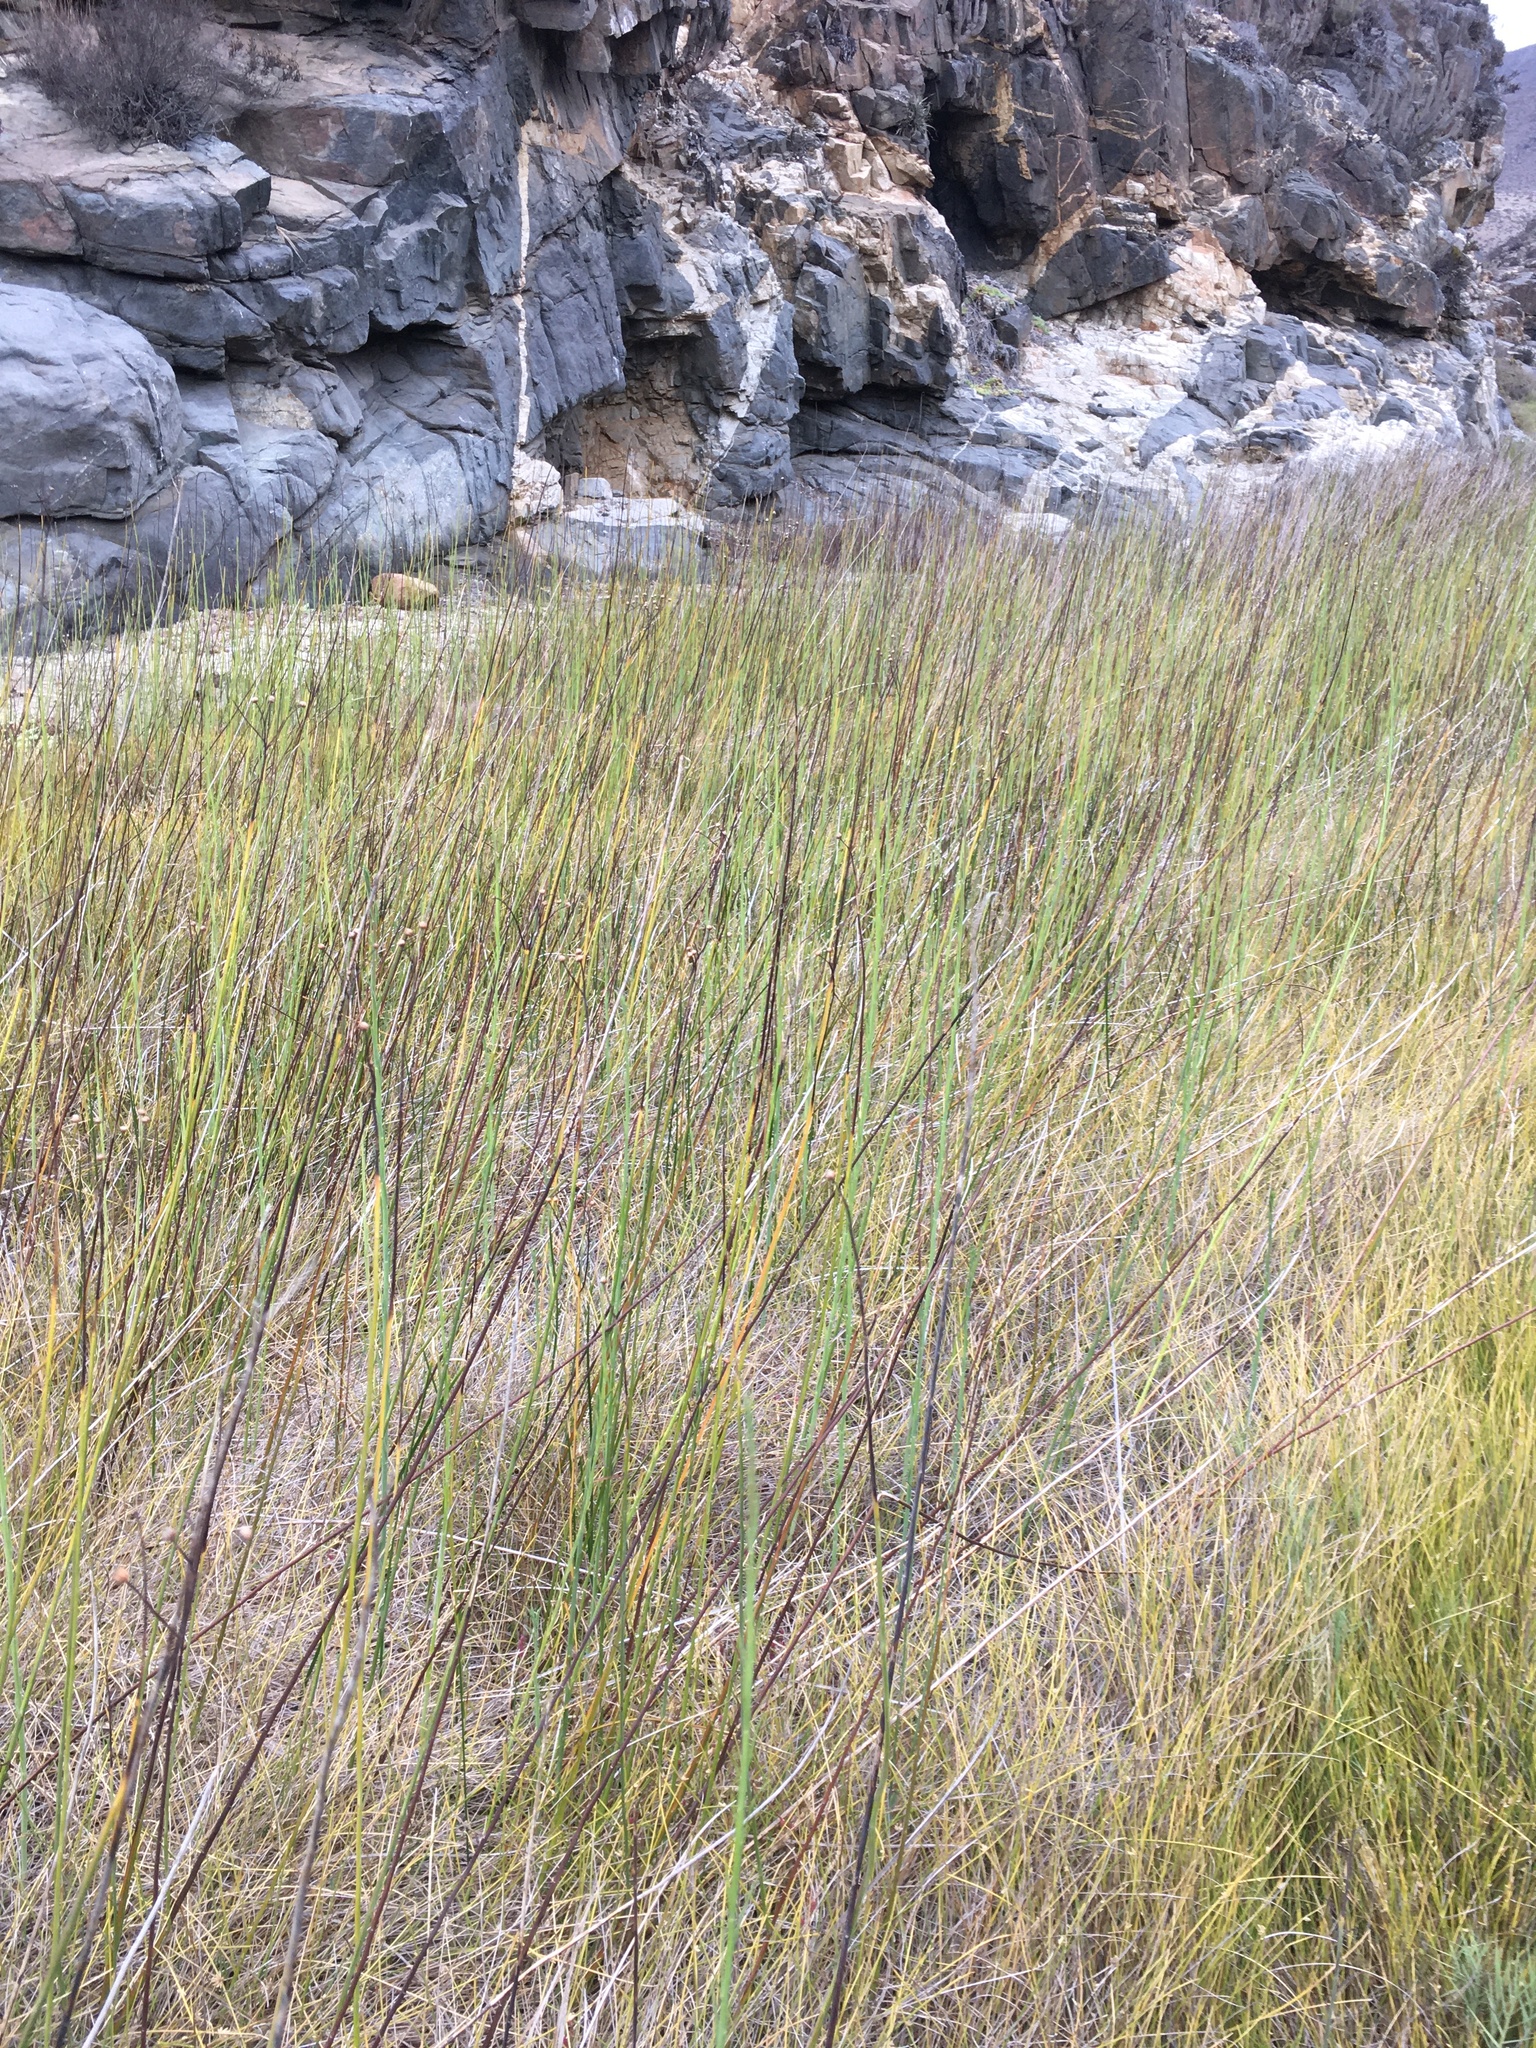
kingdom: Plantae
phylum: Tracheophyta
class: Magnoliopsida
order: Asterales
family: Asteraceae
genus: Baccharis
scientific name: Baccharis juncea
